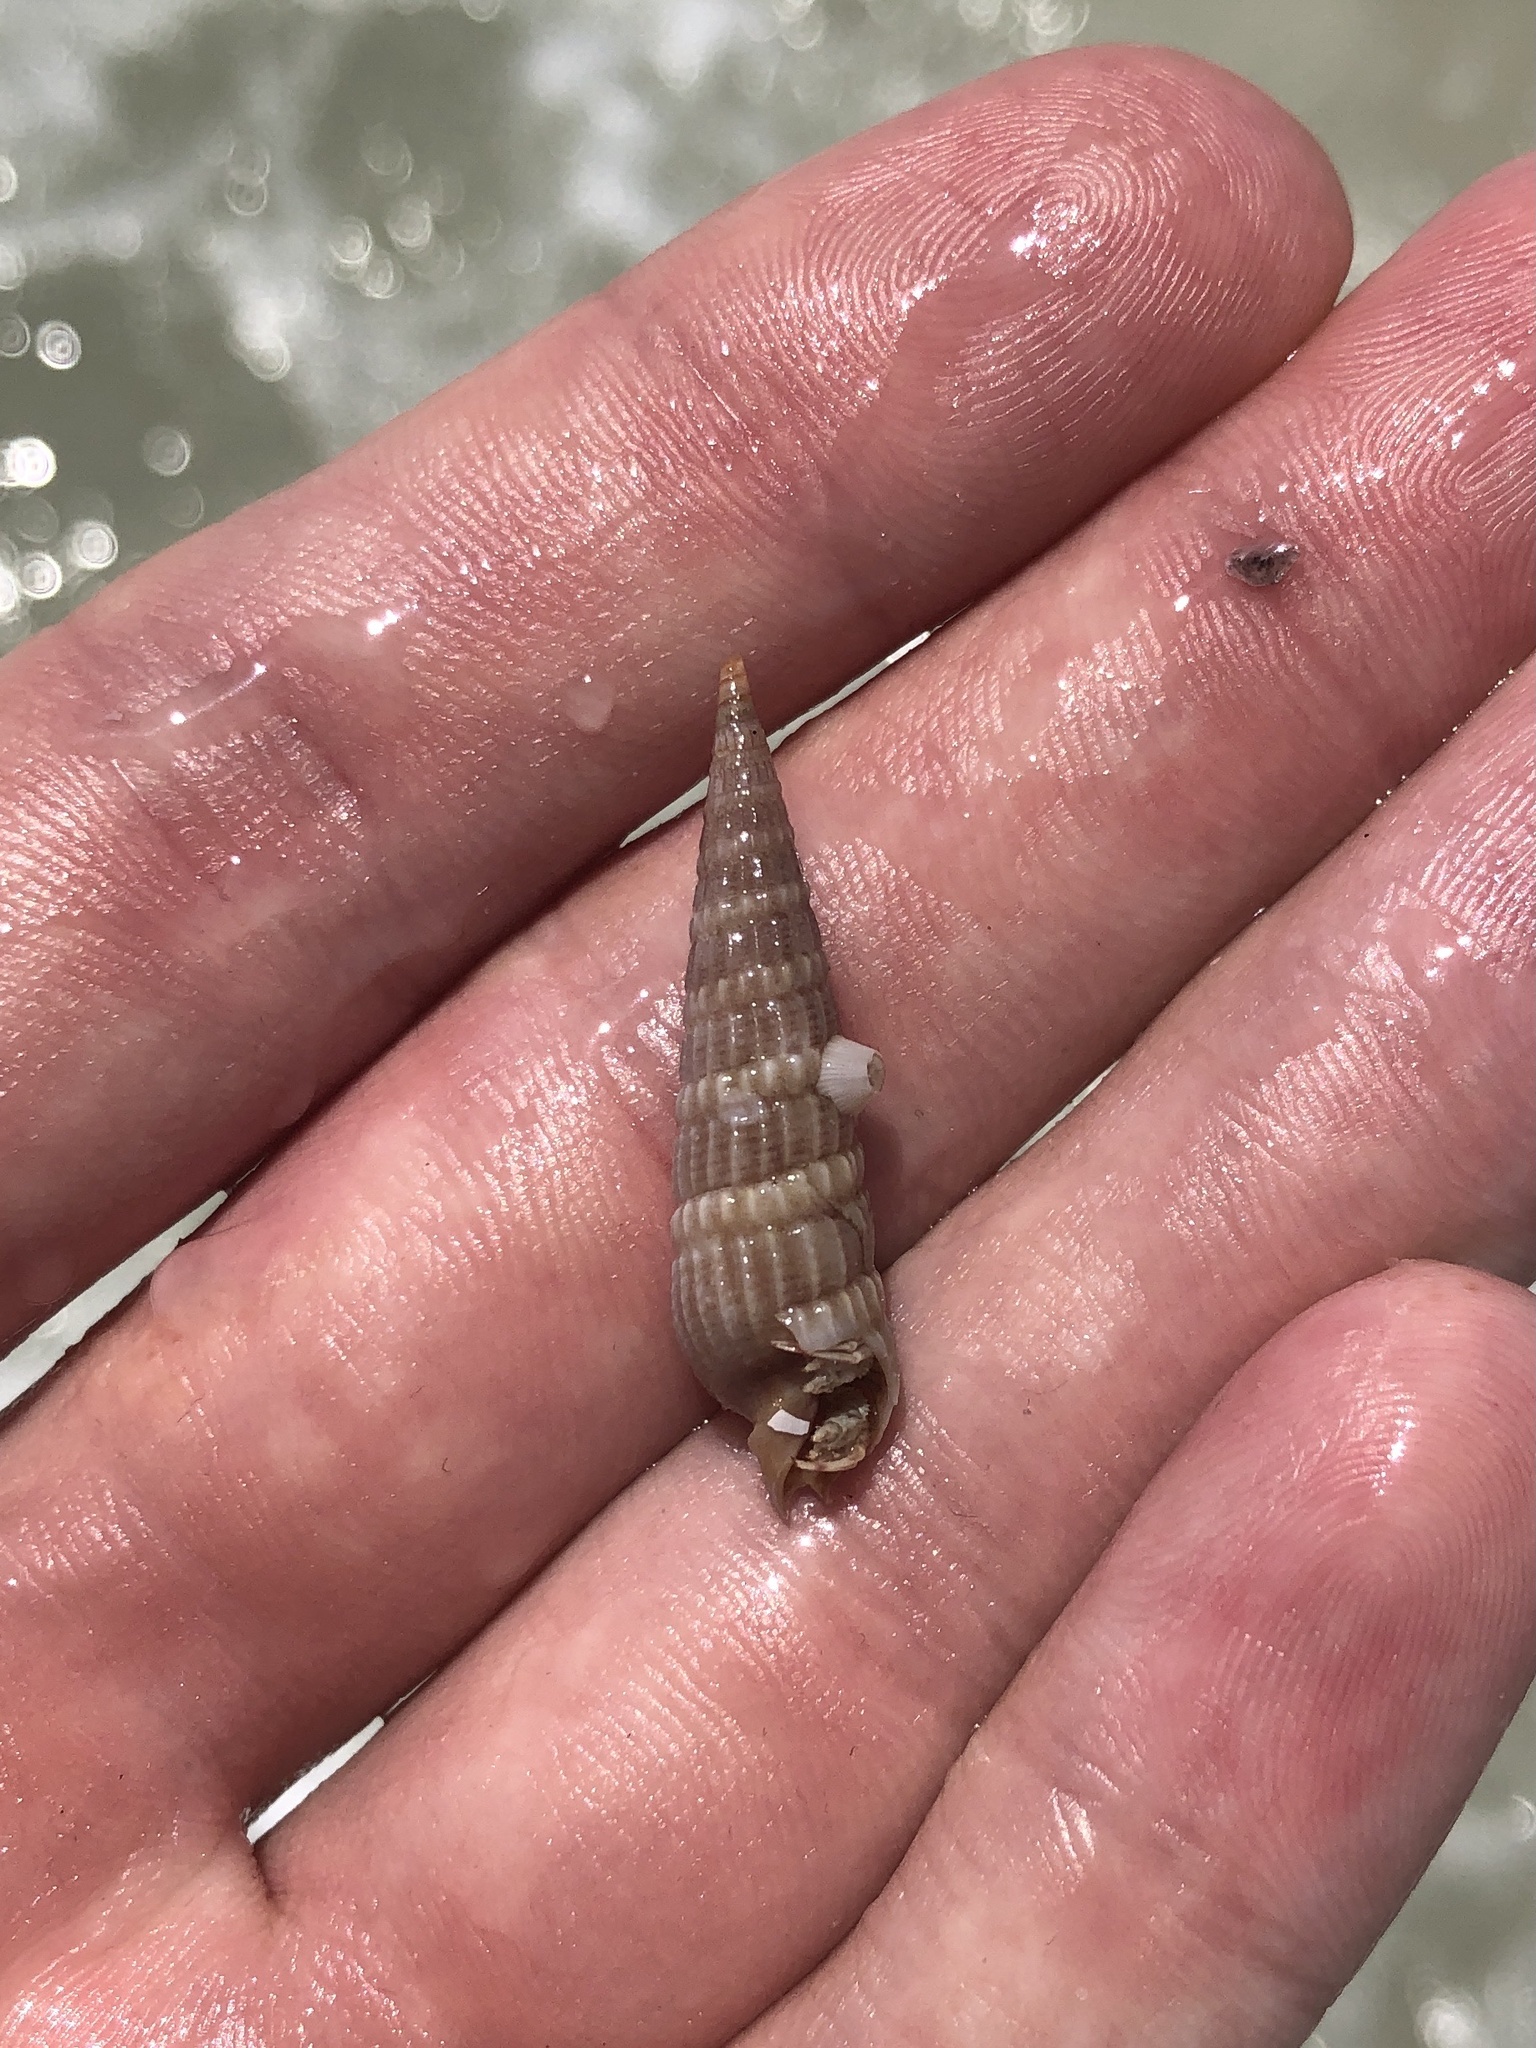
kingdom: Animalia
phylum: Mollusca
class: Gastropoda
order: Neogastropoda
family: Terebridae
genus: Neoterebra
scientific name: Neoterebra dislocata
